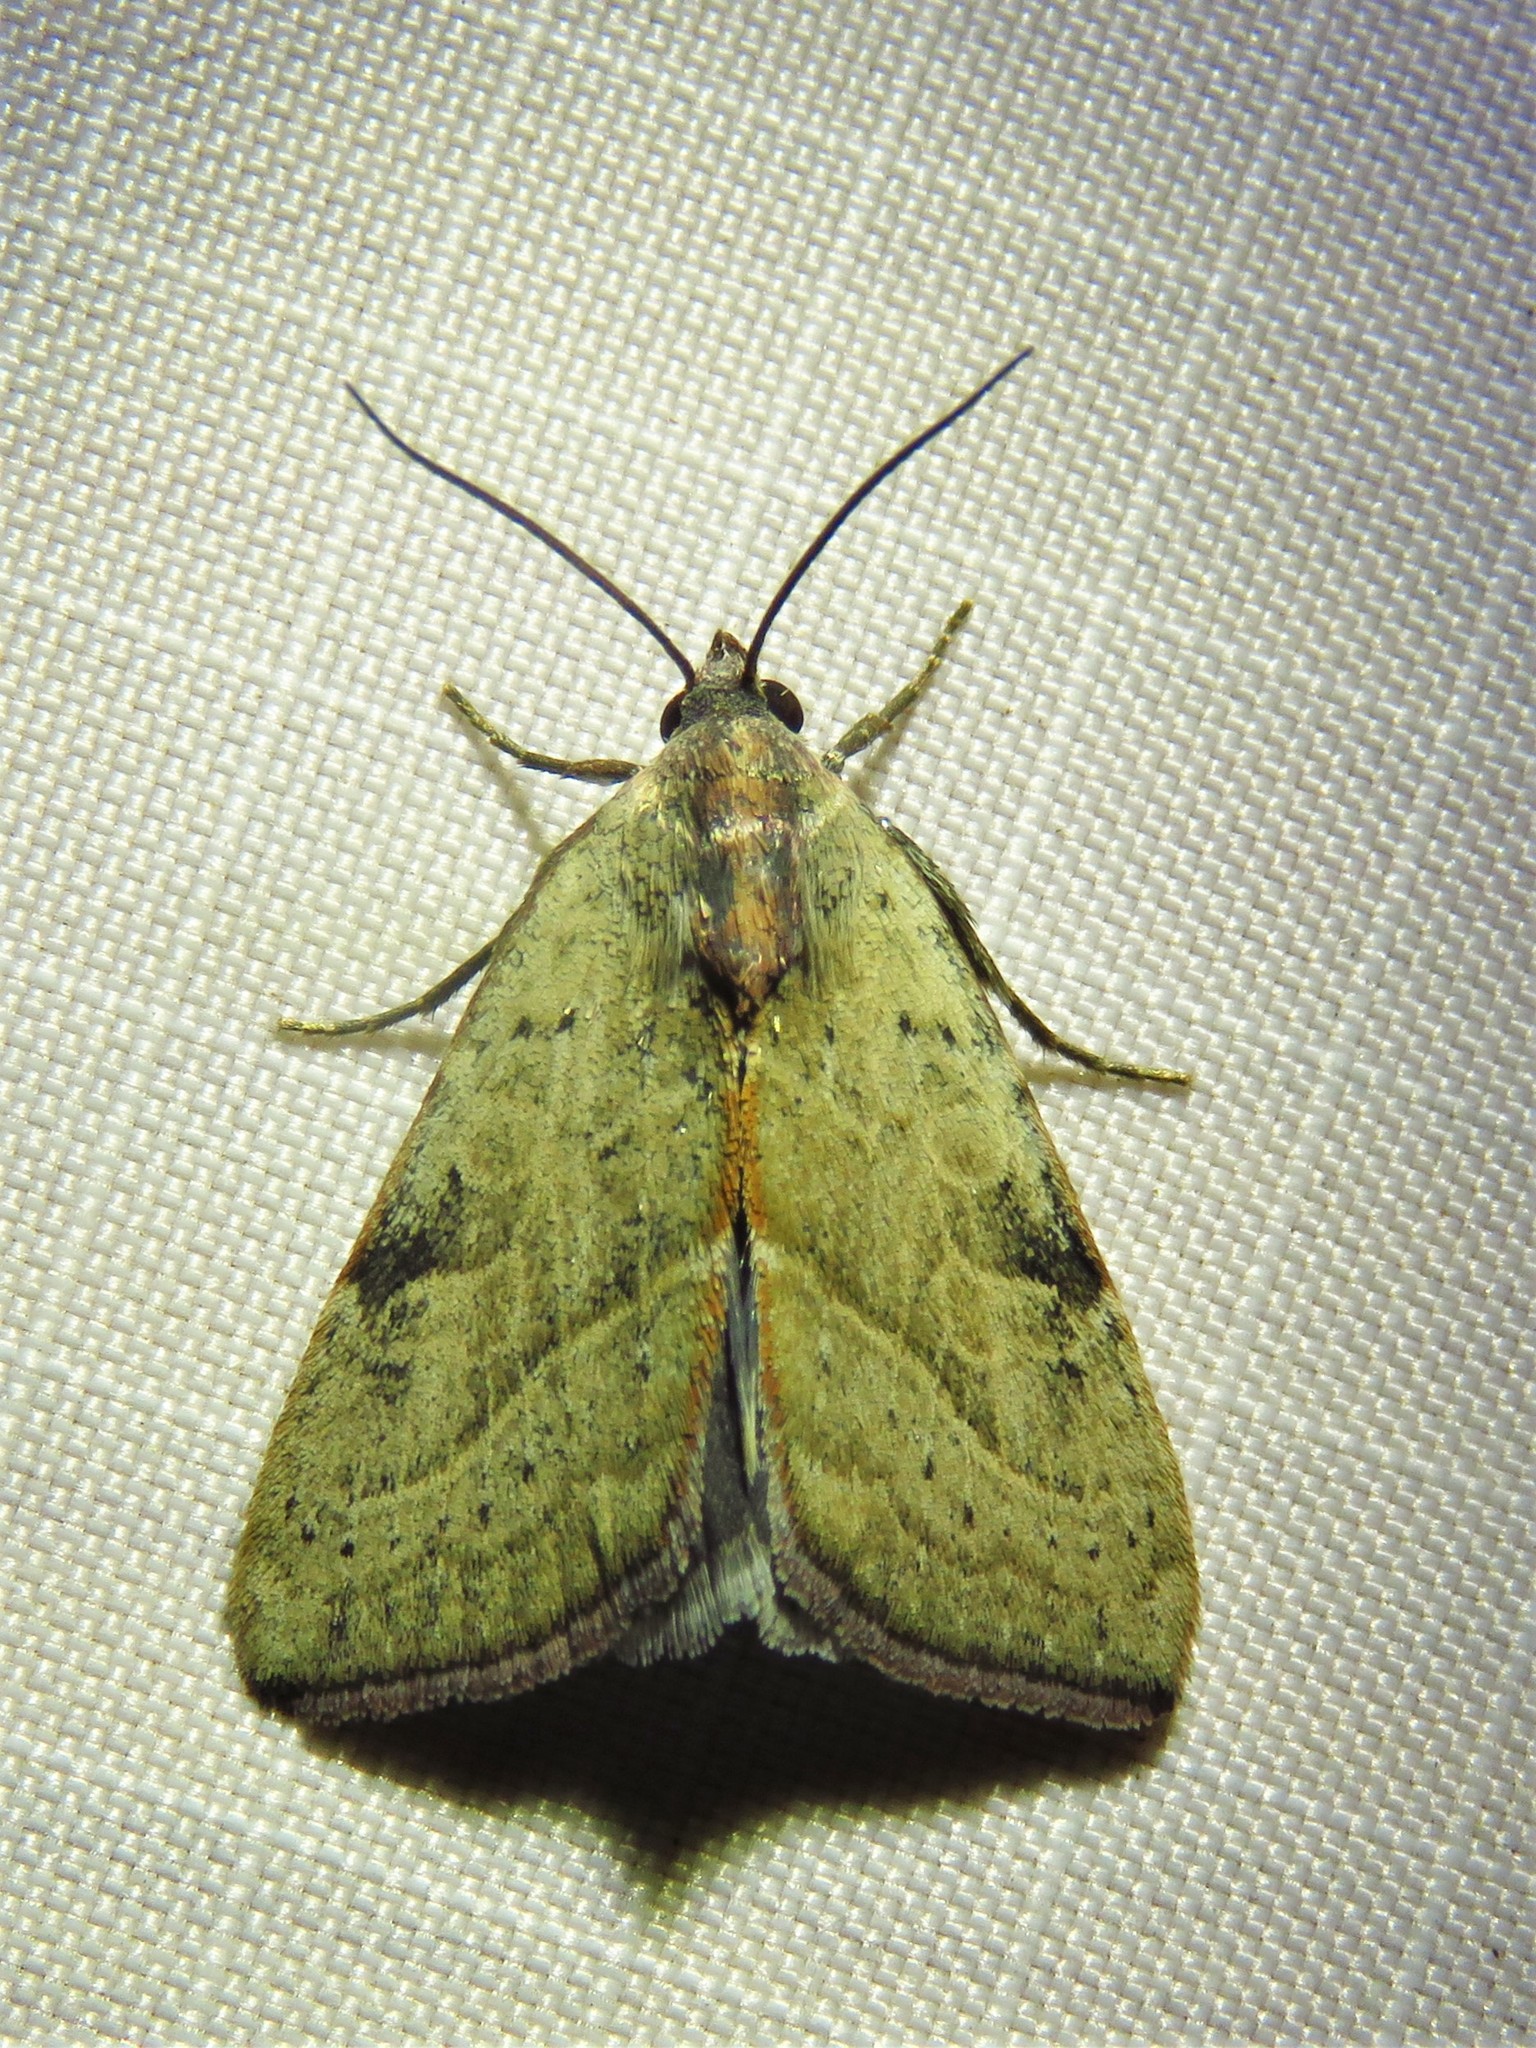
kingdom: Animalia
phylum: Arthropoda
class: Insecta
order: Lepidoptera
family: Noctuidae
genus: Galgula
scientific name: Galgula partita
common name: Wedgeling
